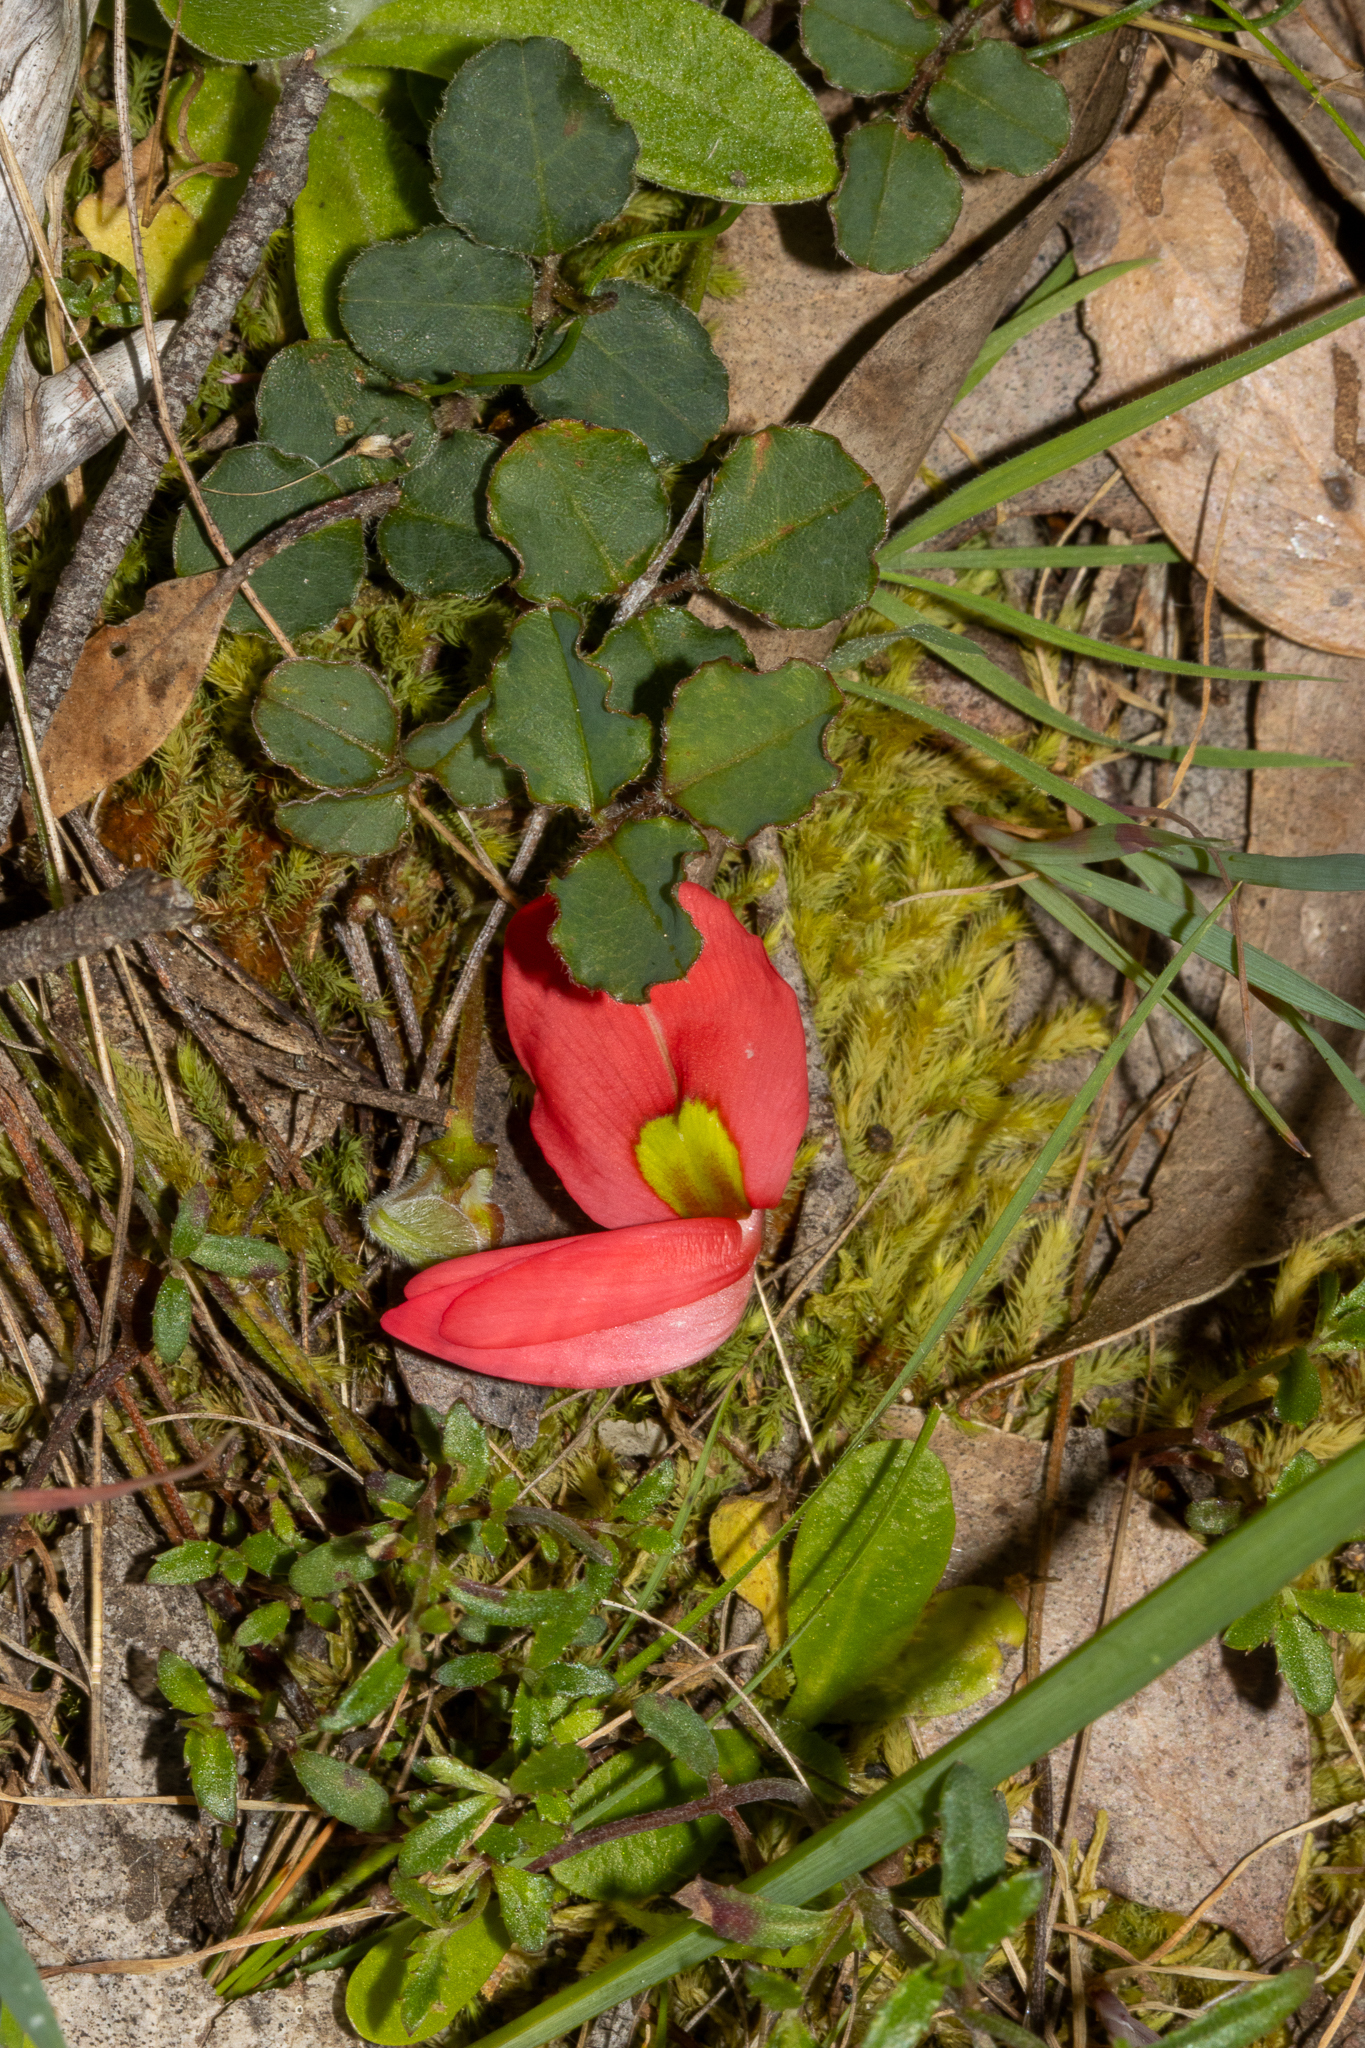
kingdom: Plantae
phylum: Tracheophyta
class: Magnoliopsida
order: Fabales
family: Fabaceae
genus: Kennedia
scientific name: Kennedia prostrata
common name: Running-postman
